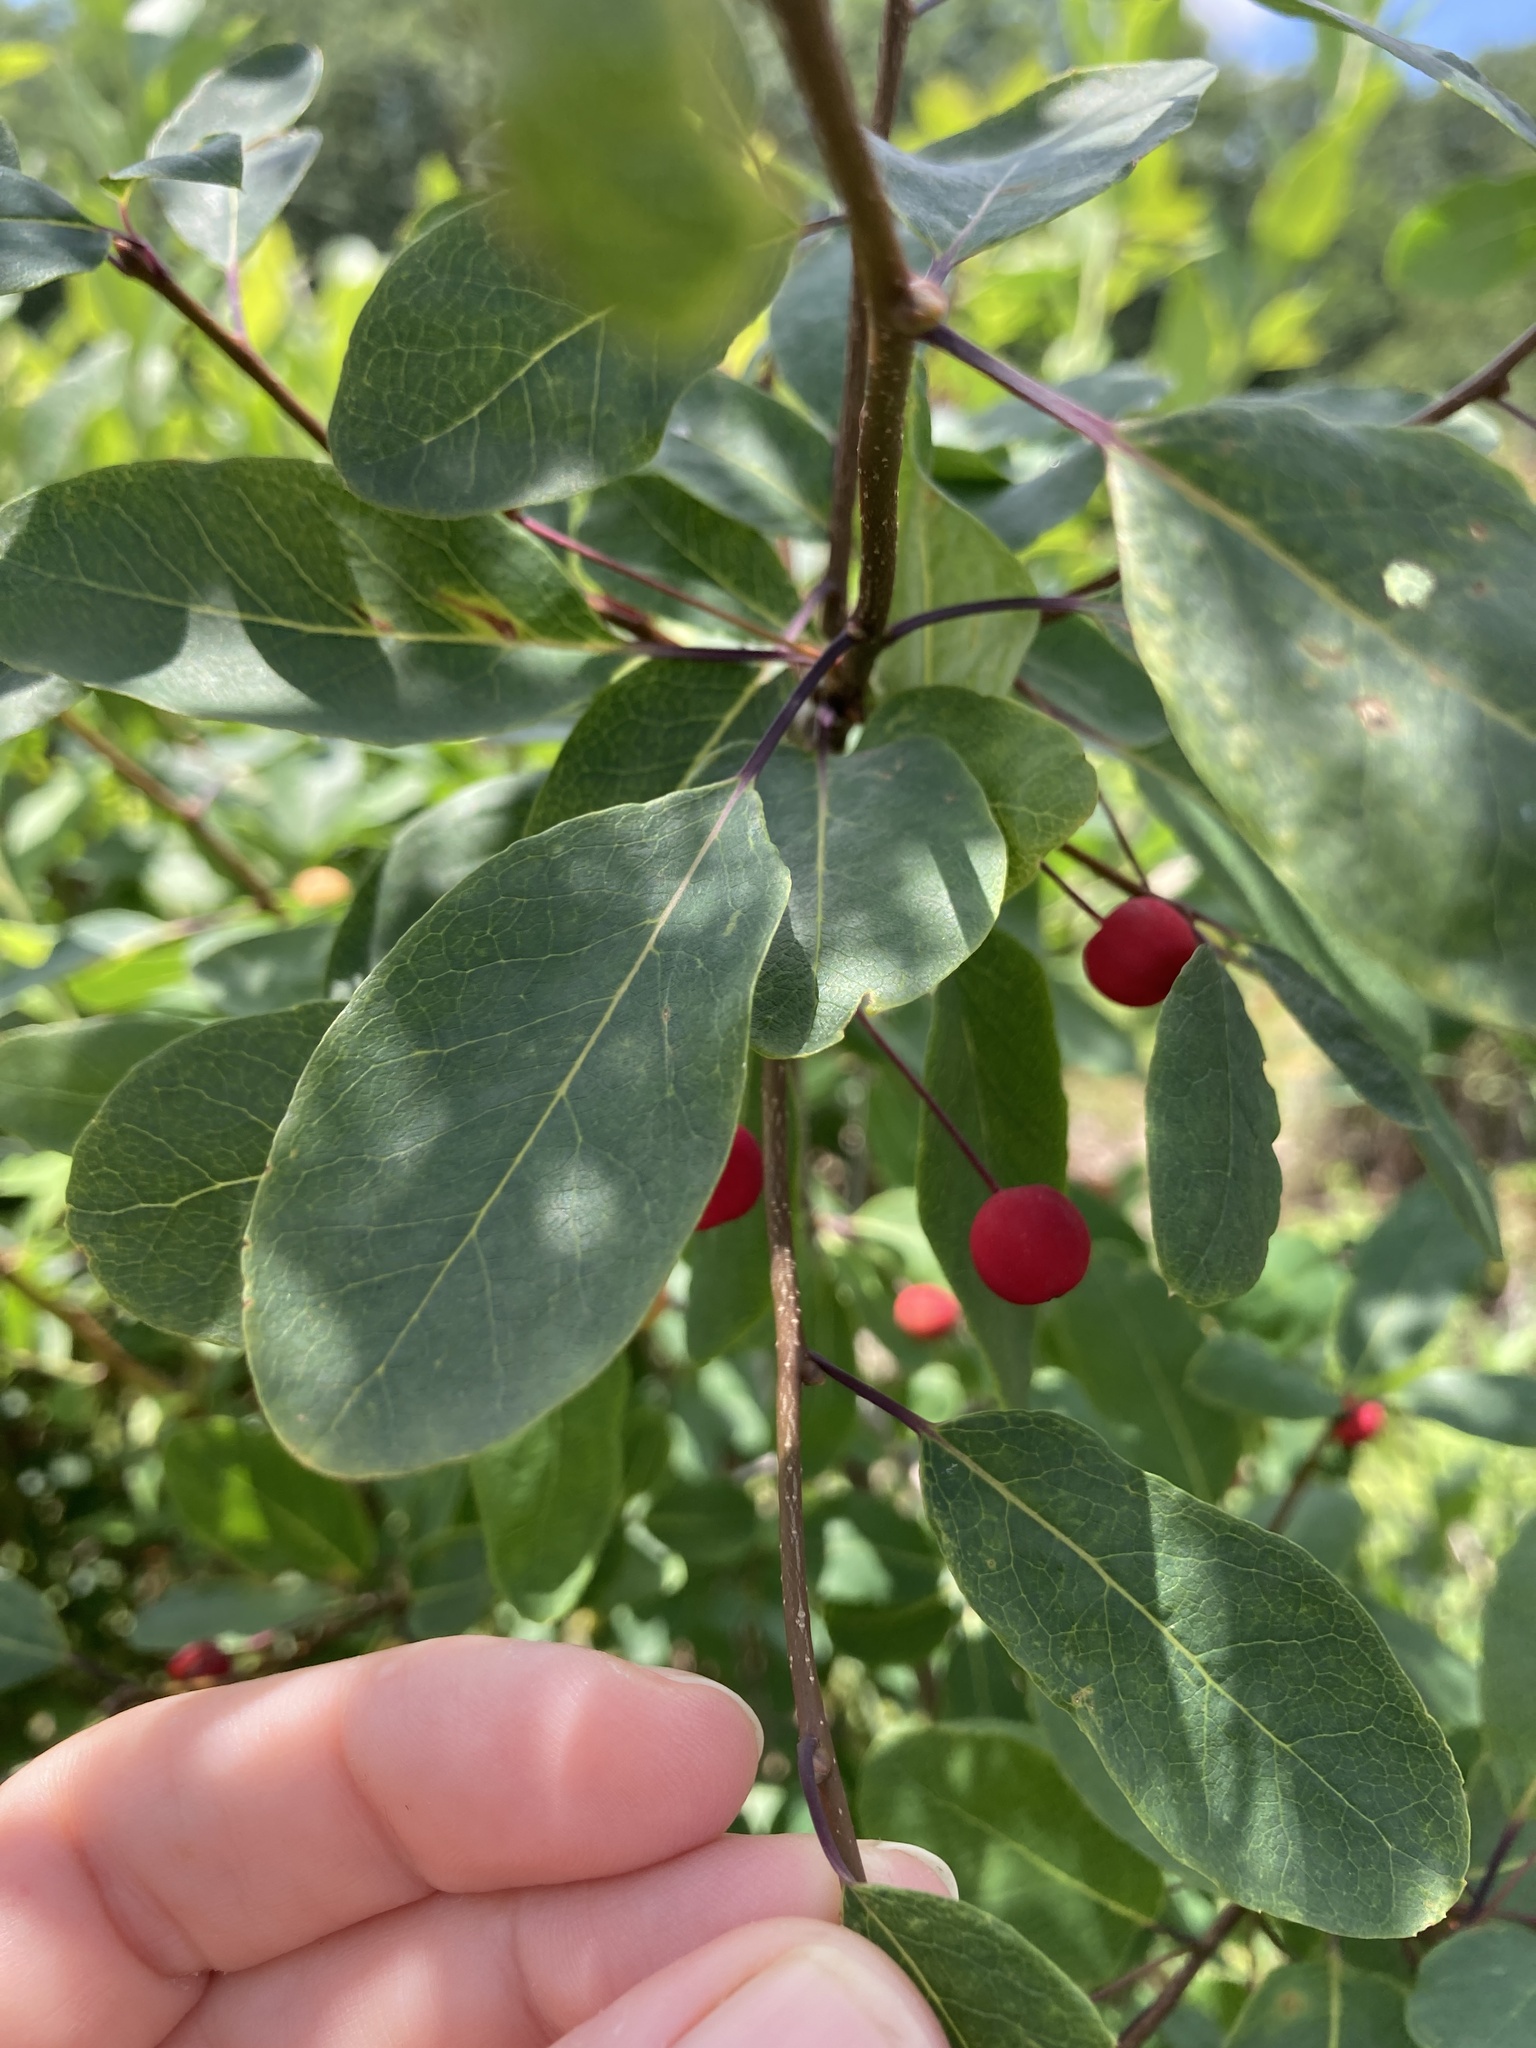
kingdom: Plantae
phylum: Tracheophyta
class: Magnoliopsida
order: Aquifoliales
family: Aquifoliaceae
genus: Ilex
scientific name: Ilex mucronata
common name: Catberry
